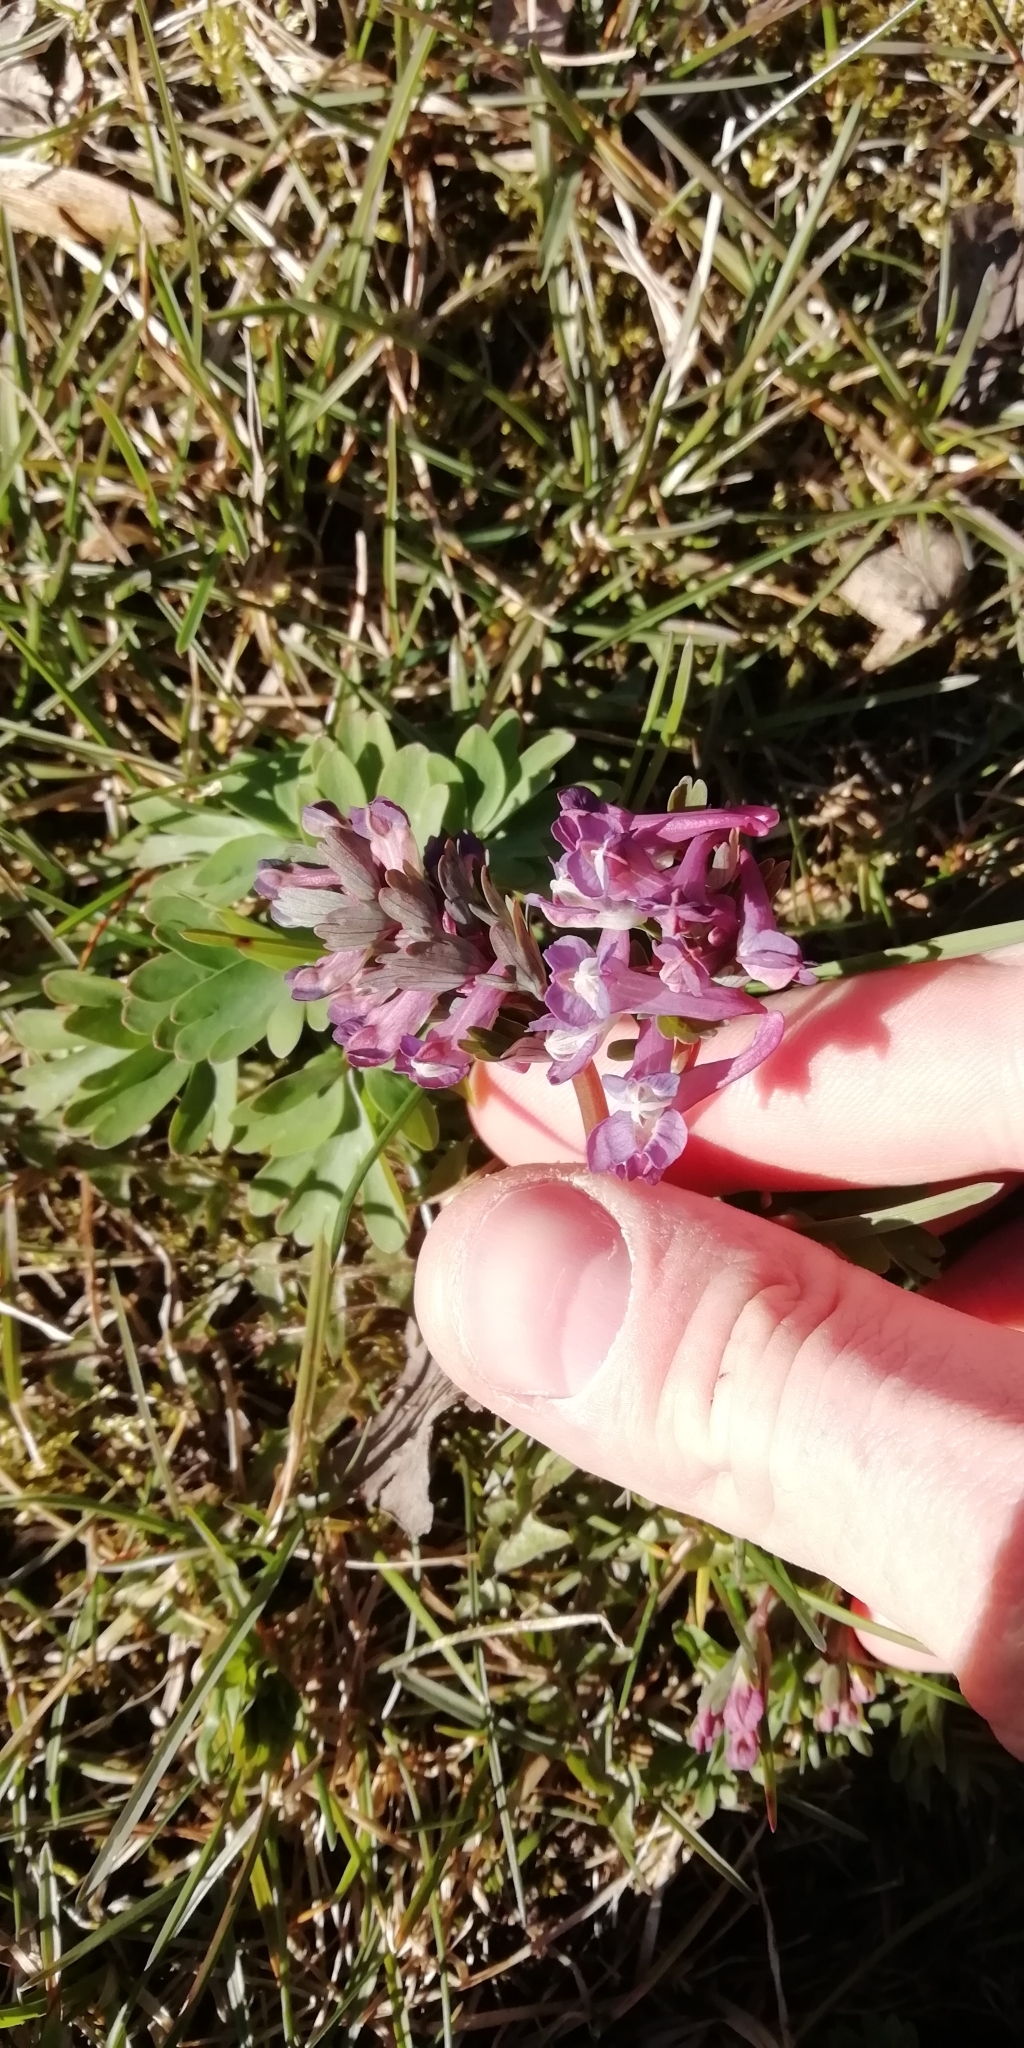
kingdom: Plantae
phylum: Tracheophyta
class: Magnoliopsida
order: Ranunculales
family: Papaveraceae
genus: Corydalis
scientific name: Corydalis solida
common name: Bird-in-a-bush
